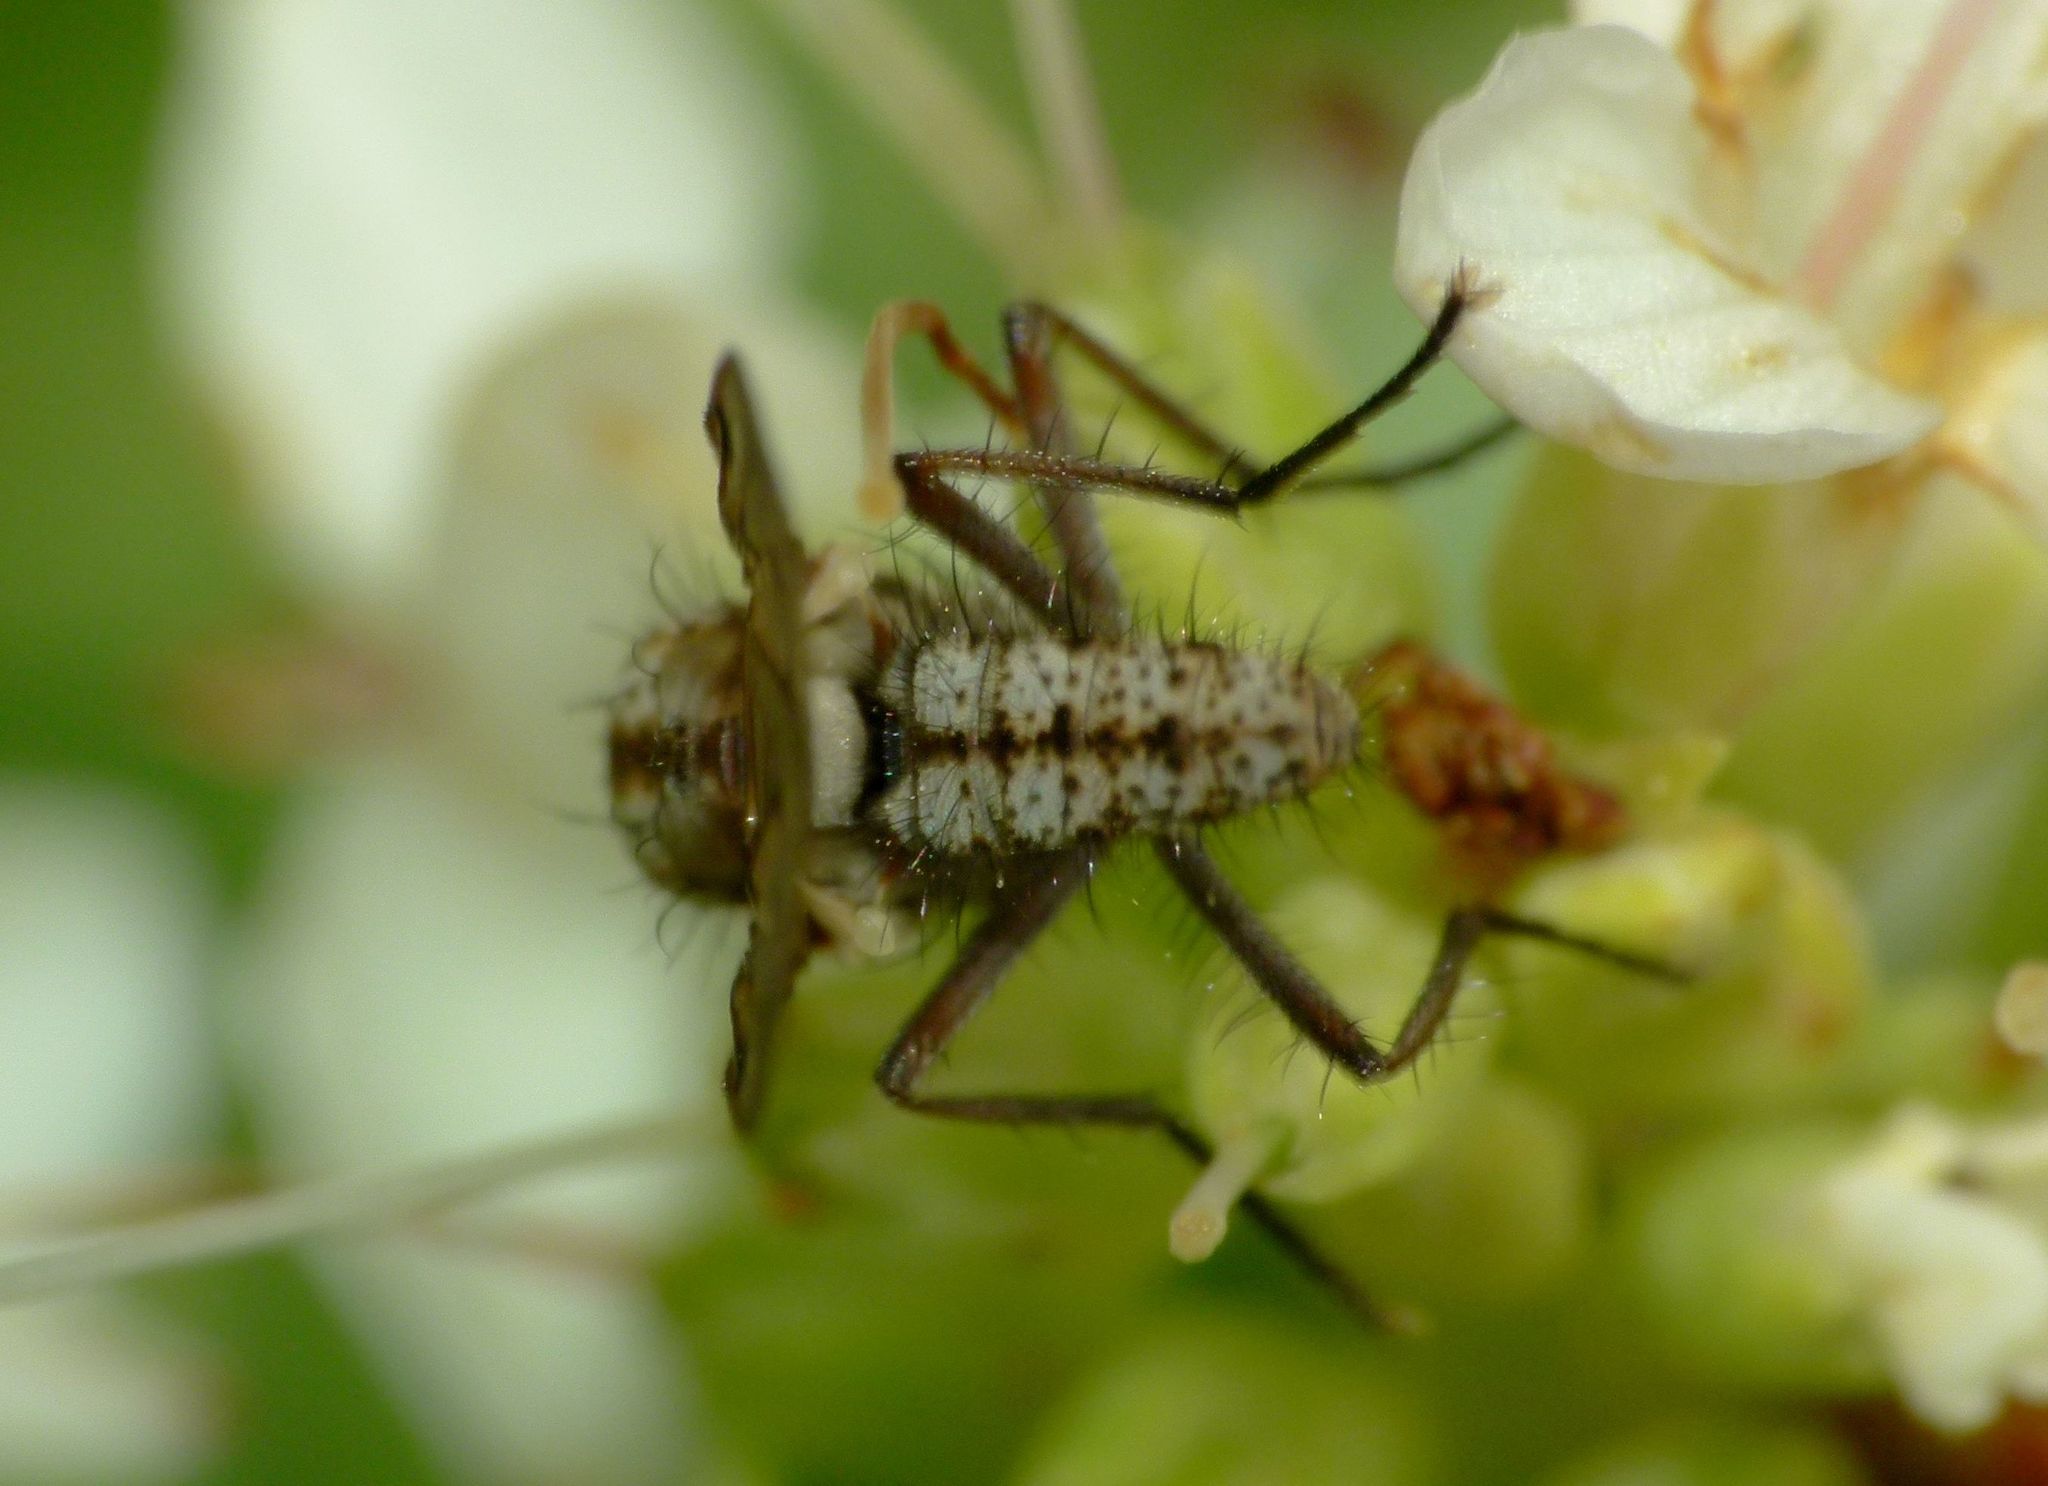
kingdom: Animalia
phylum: Arthropoda
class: Insecta
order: Diptera
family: Anthomyiidae
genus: Anthomyia
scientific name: Anthomyia punctipennis
